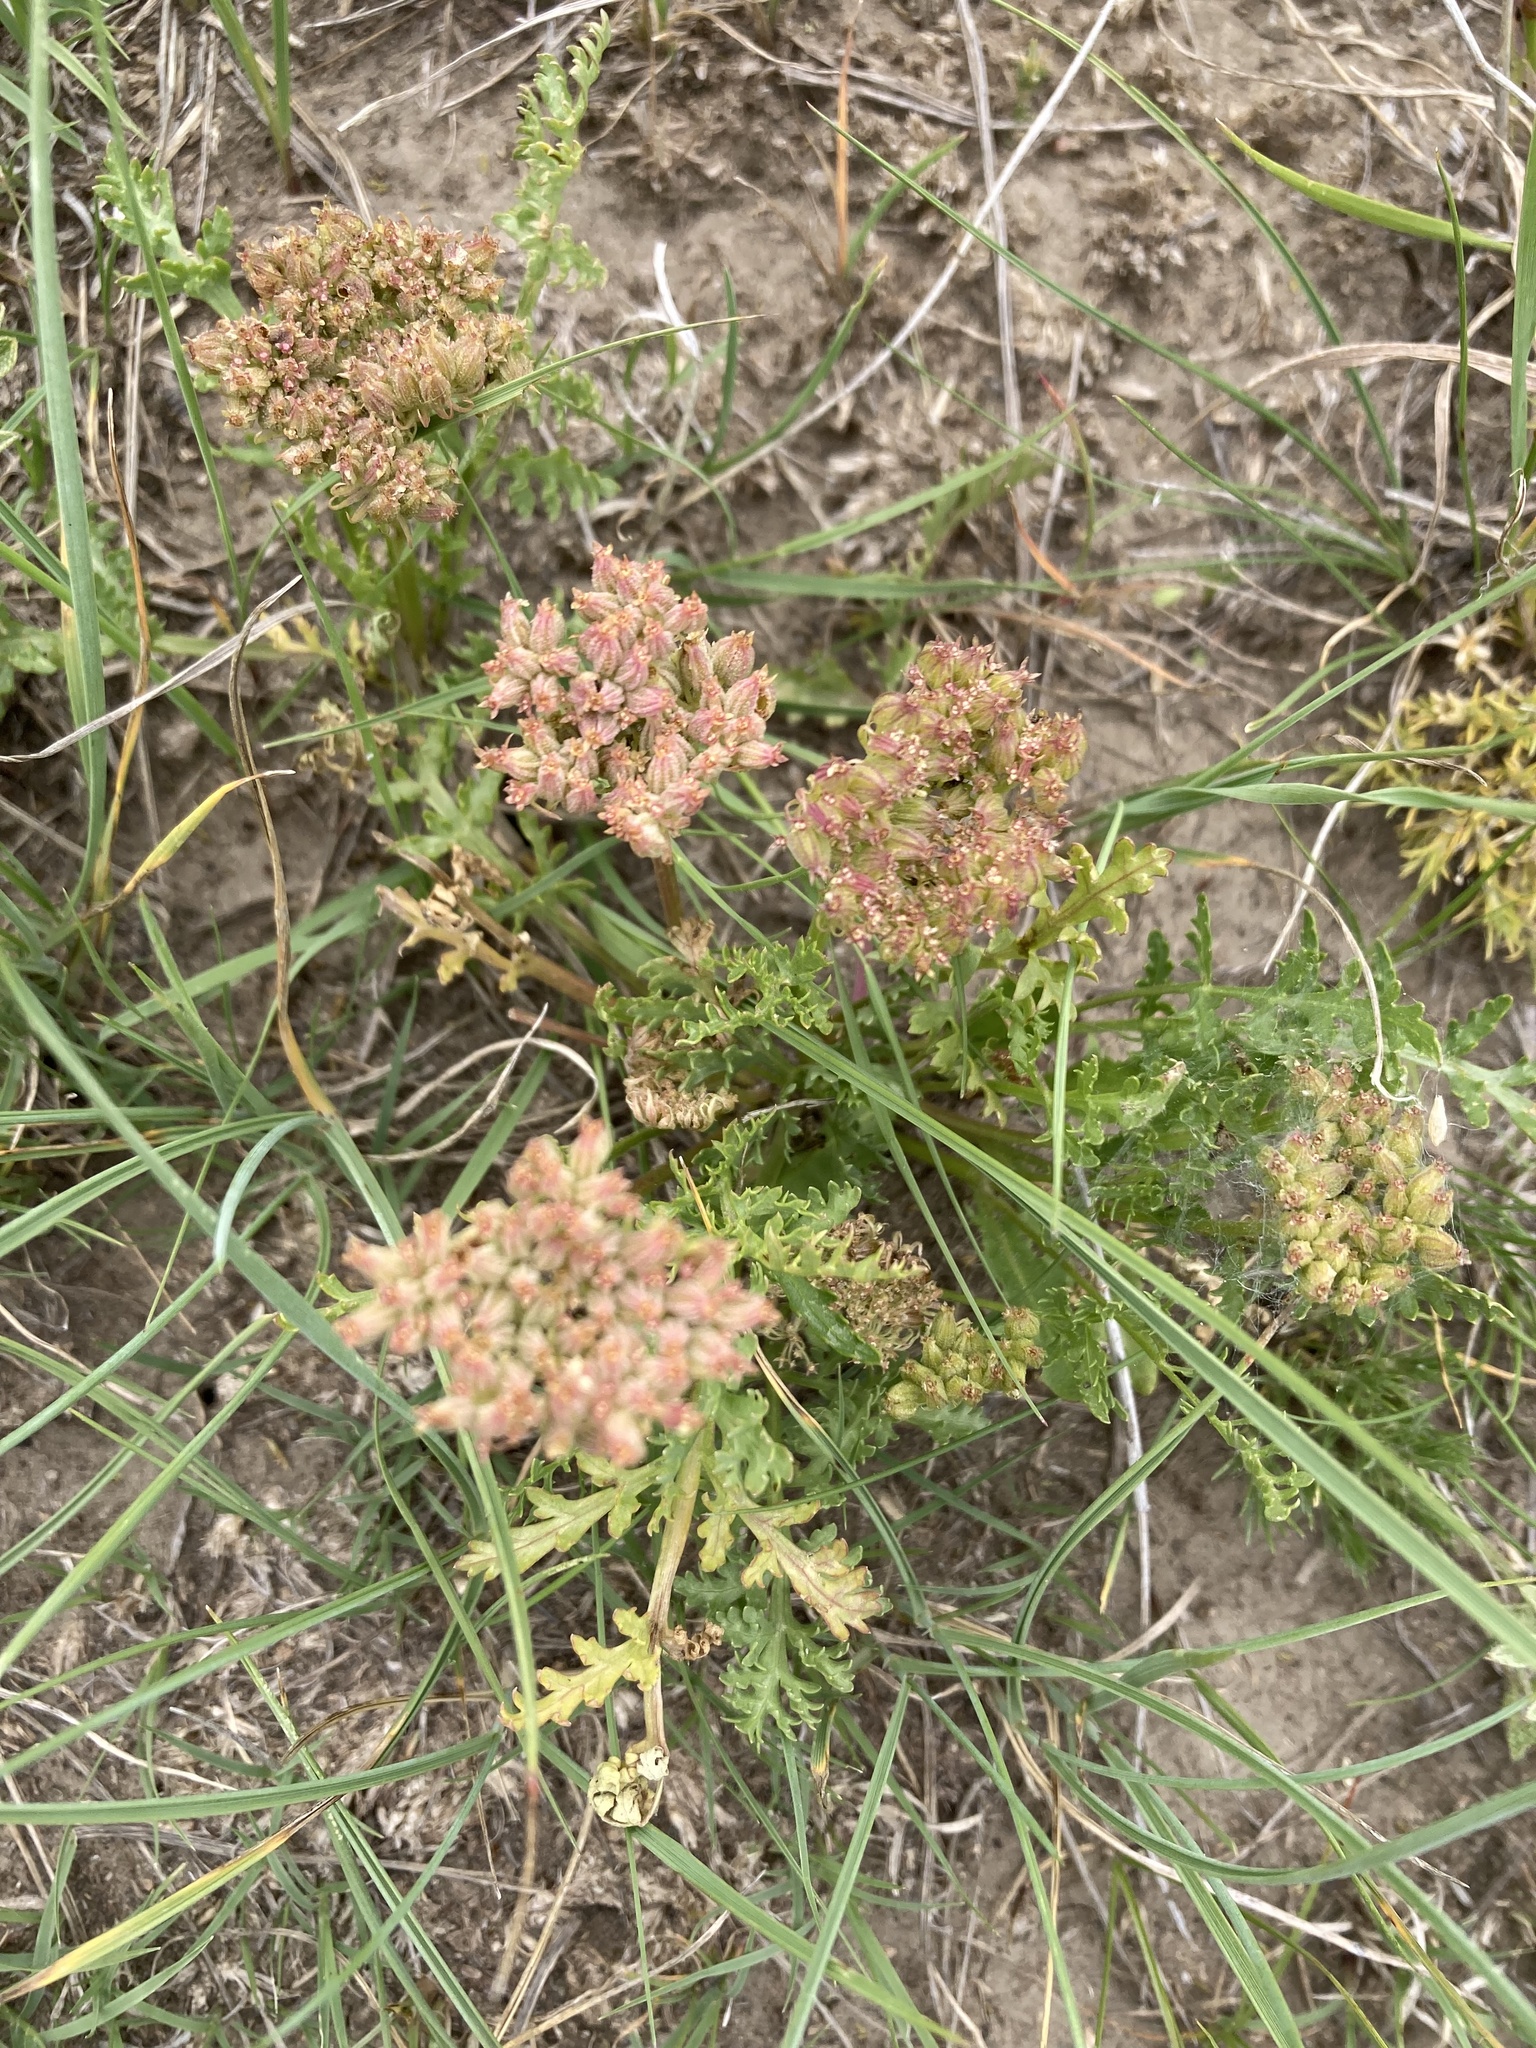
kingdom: Plantae
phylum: Tracheophyta
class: Magnoliopsida
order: Apiales
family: Apiaceae
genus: Musineon
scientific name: Musineon divaricatum
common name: Plains musineon
